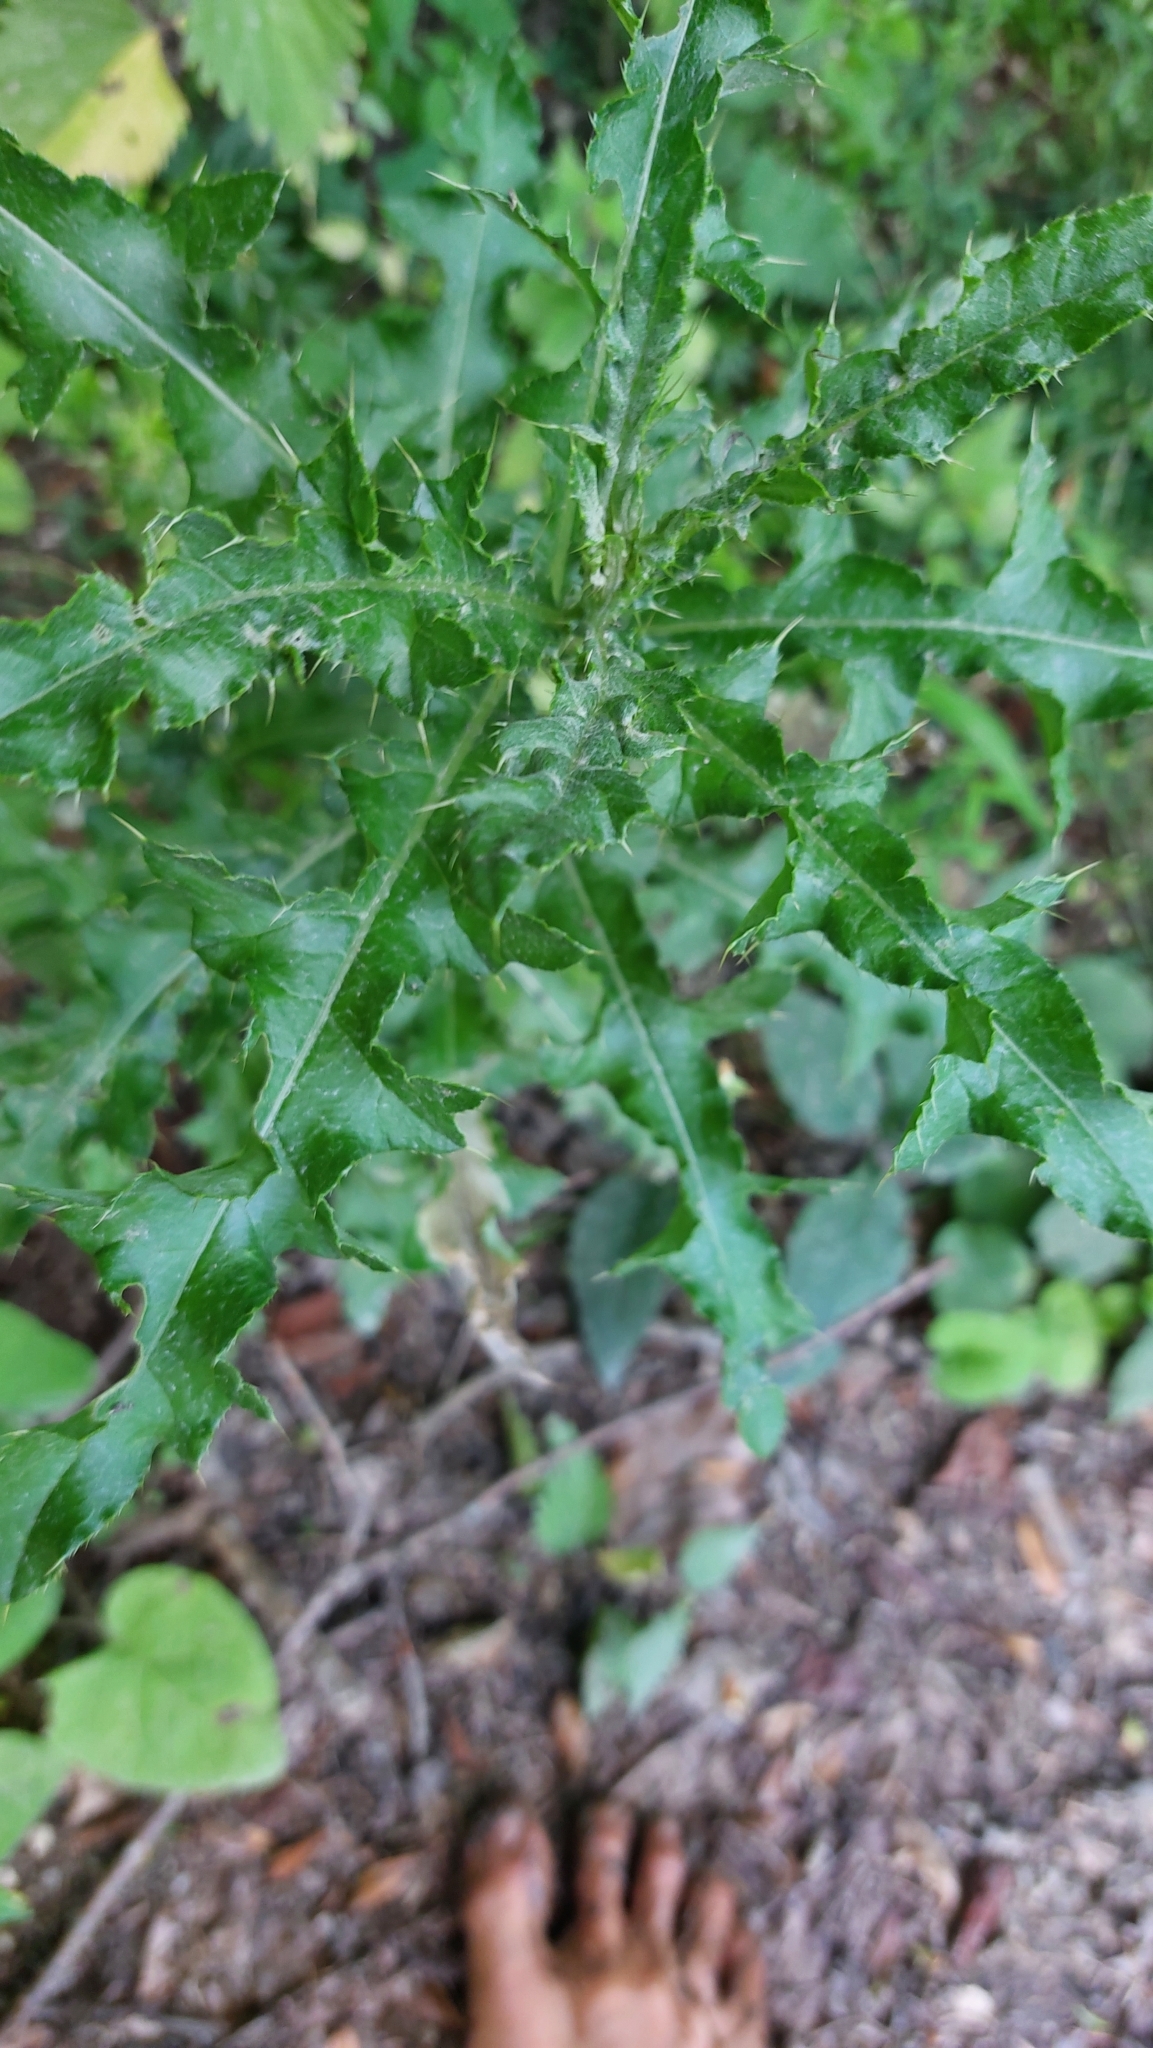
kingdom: Plantae
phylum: Tracheophyta
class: Magnoliopsida
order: Asterales
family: Asteraceae
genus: Cirsium
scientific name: Cirsium arvense
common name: Creeping thistle
